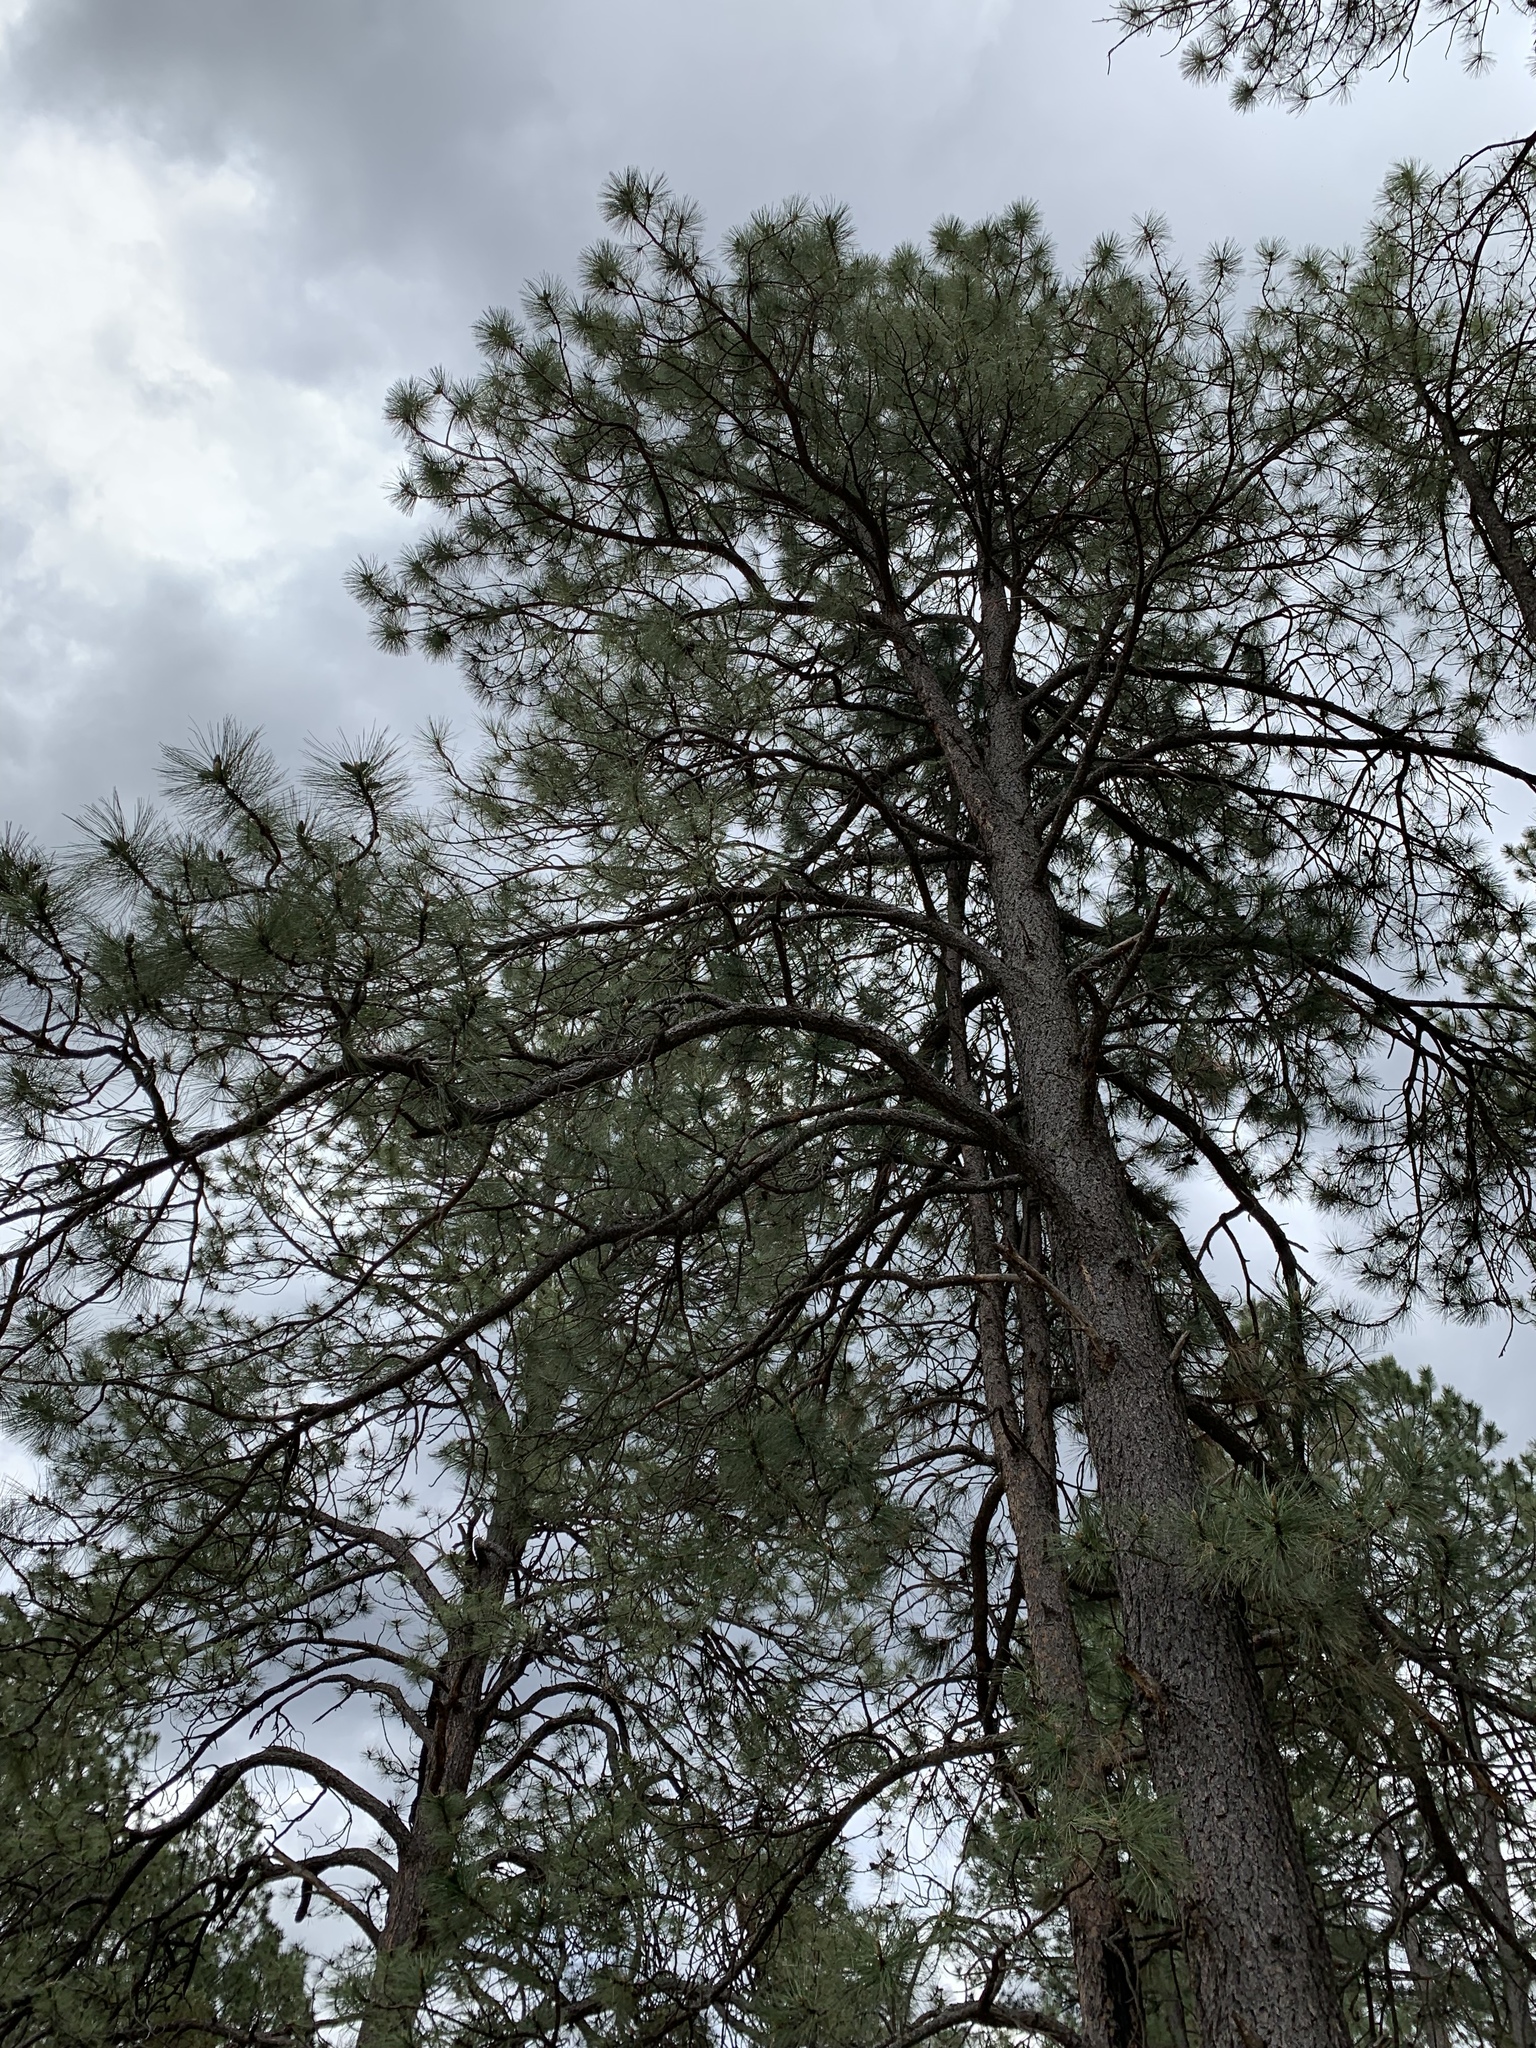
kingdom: Plantae
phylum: Tracheophyta
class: Pinopsida
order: Pinales
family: Pinaceae
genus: Pinus
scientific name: Pinus ponderosa
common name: Western yellow-pine
